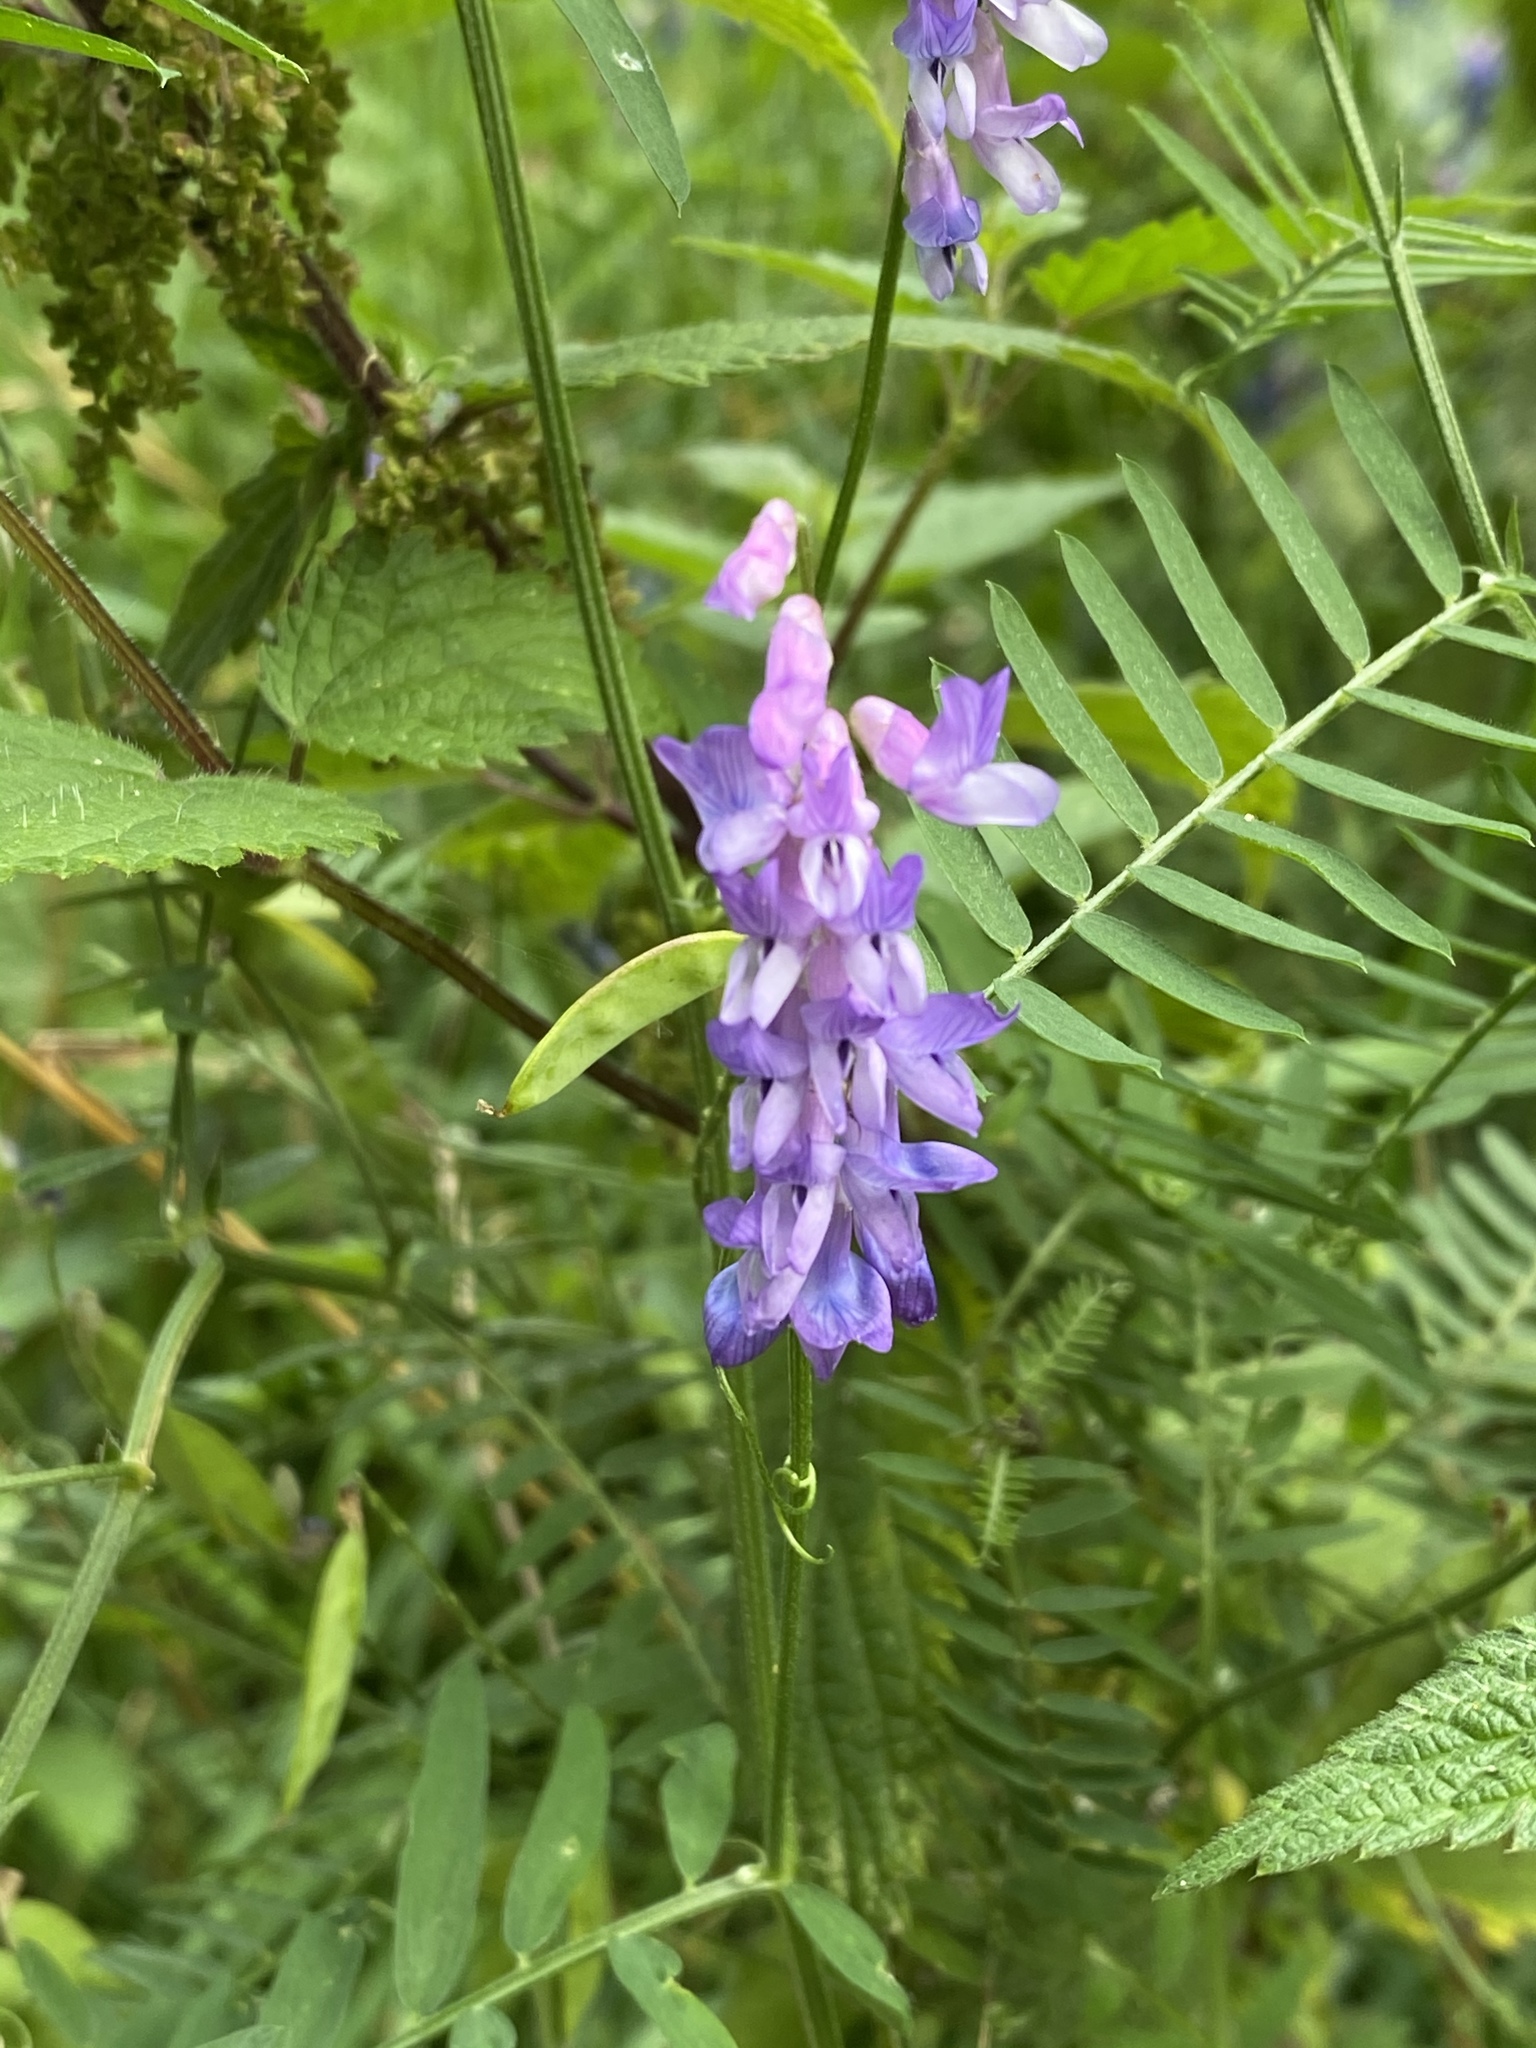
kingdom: Plantae
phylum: Tracheophyta
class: Magnoliopsida
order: Fabales
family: Fabaceae
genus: Vicia
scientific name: Vicia cracca
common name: Bird vetch
